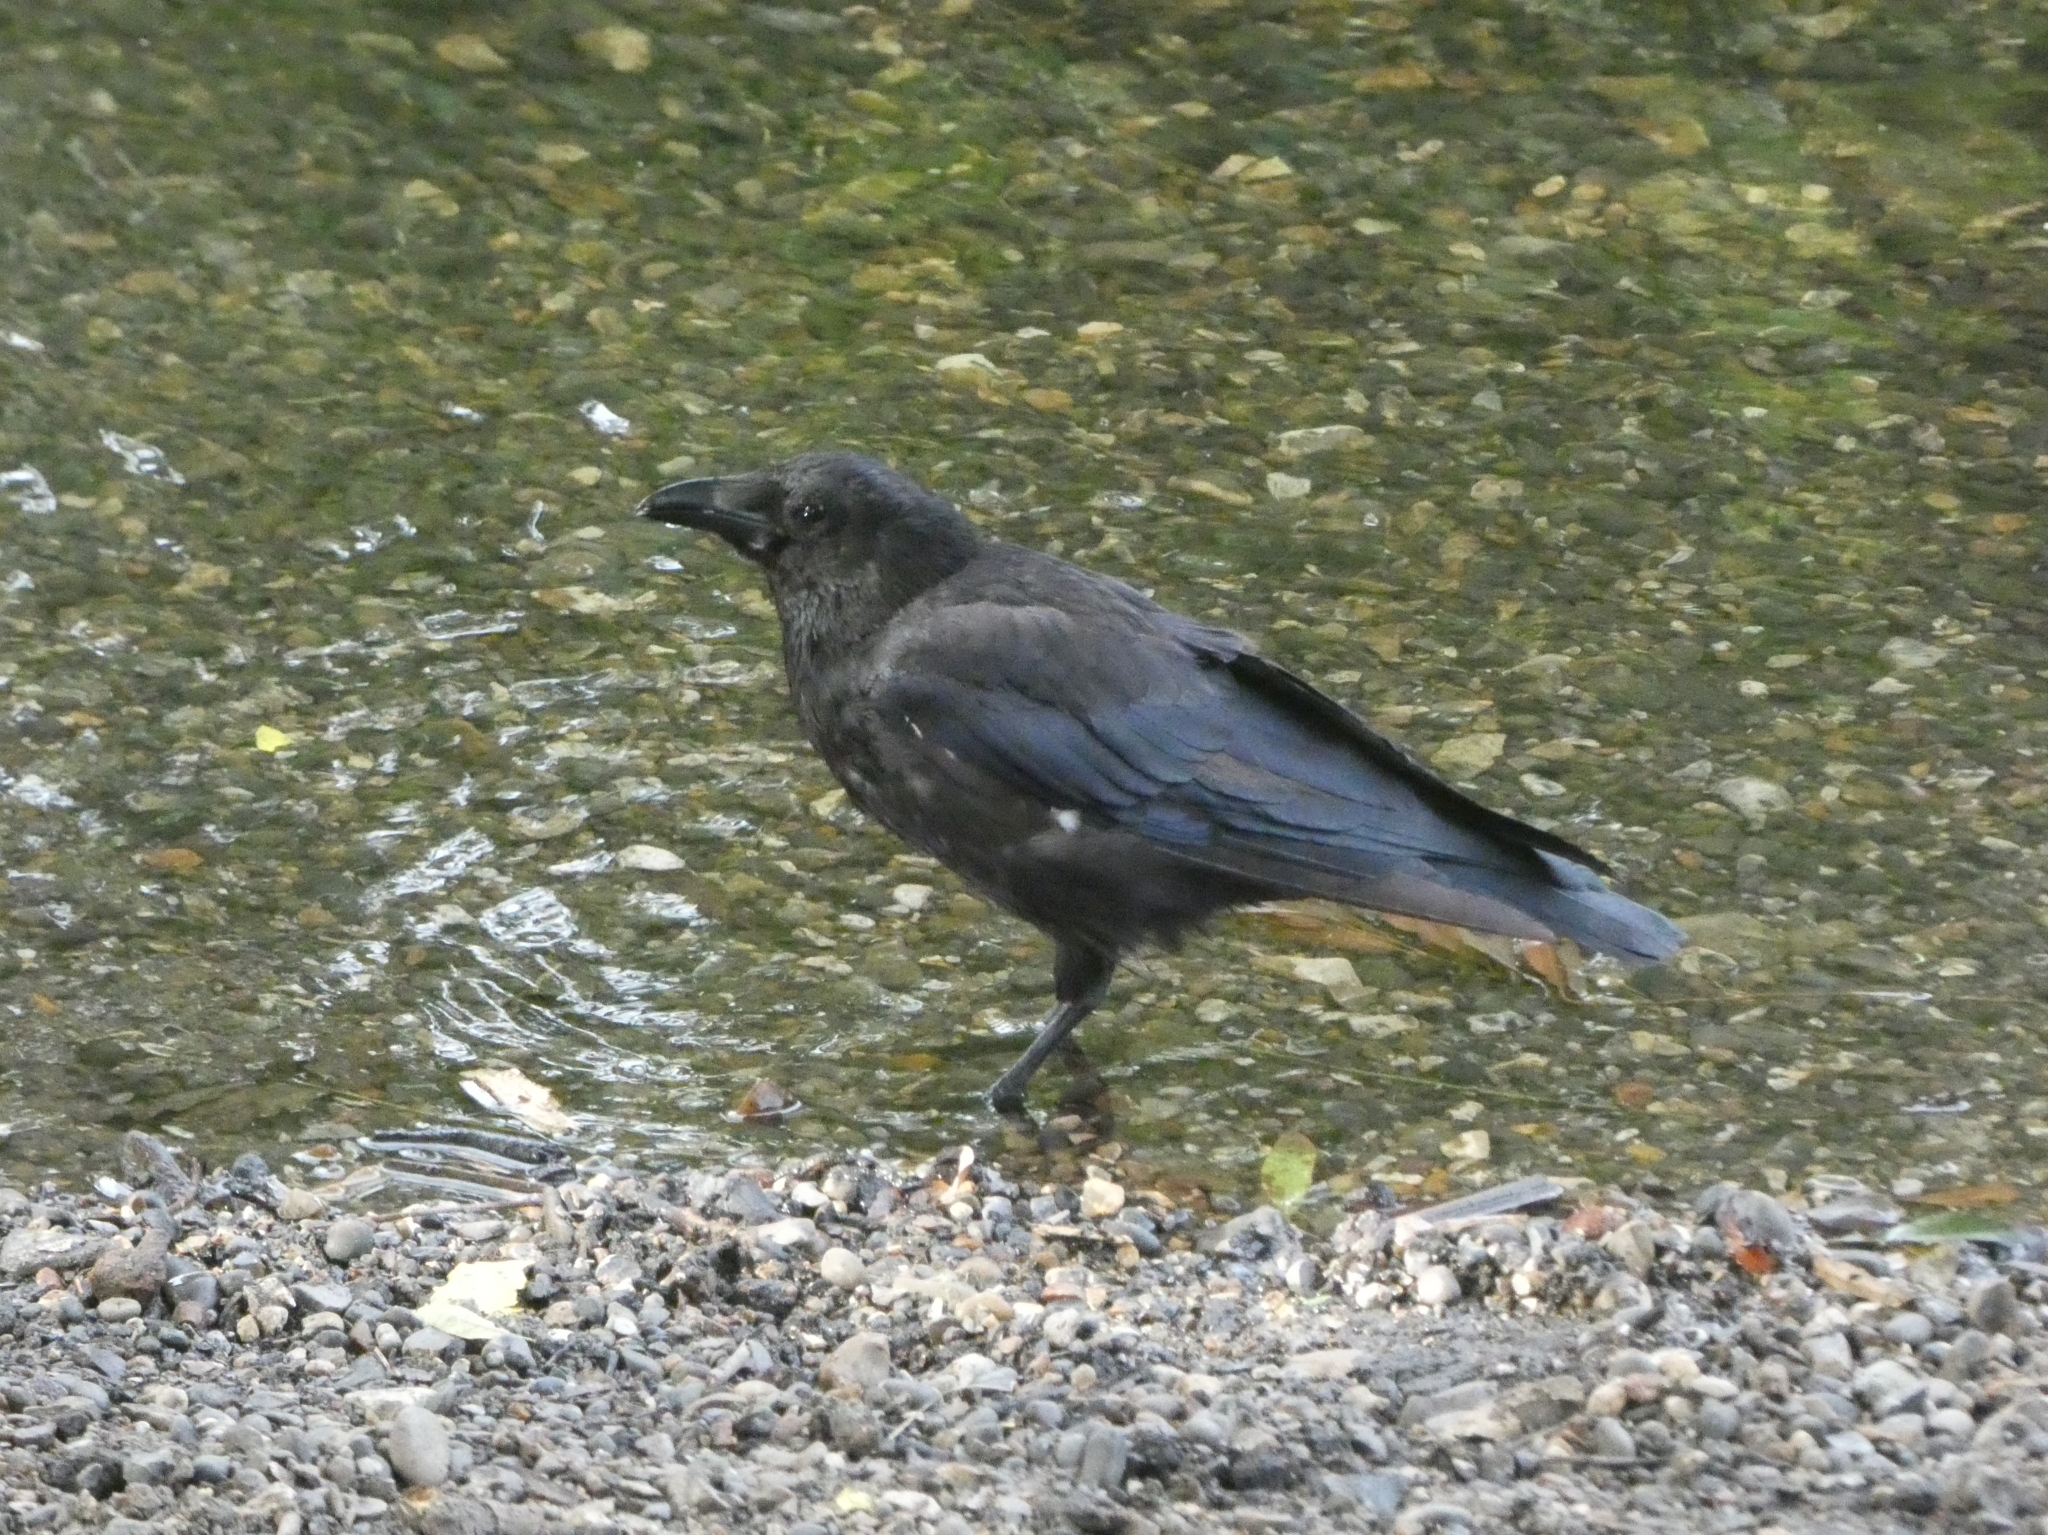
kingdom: Animalia
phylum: Chordata
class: Aves
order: Passeriformes
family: Corvidae
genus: Corvus
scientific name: Corvus corone
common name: Carrion crow
